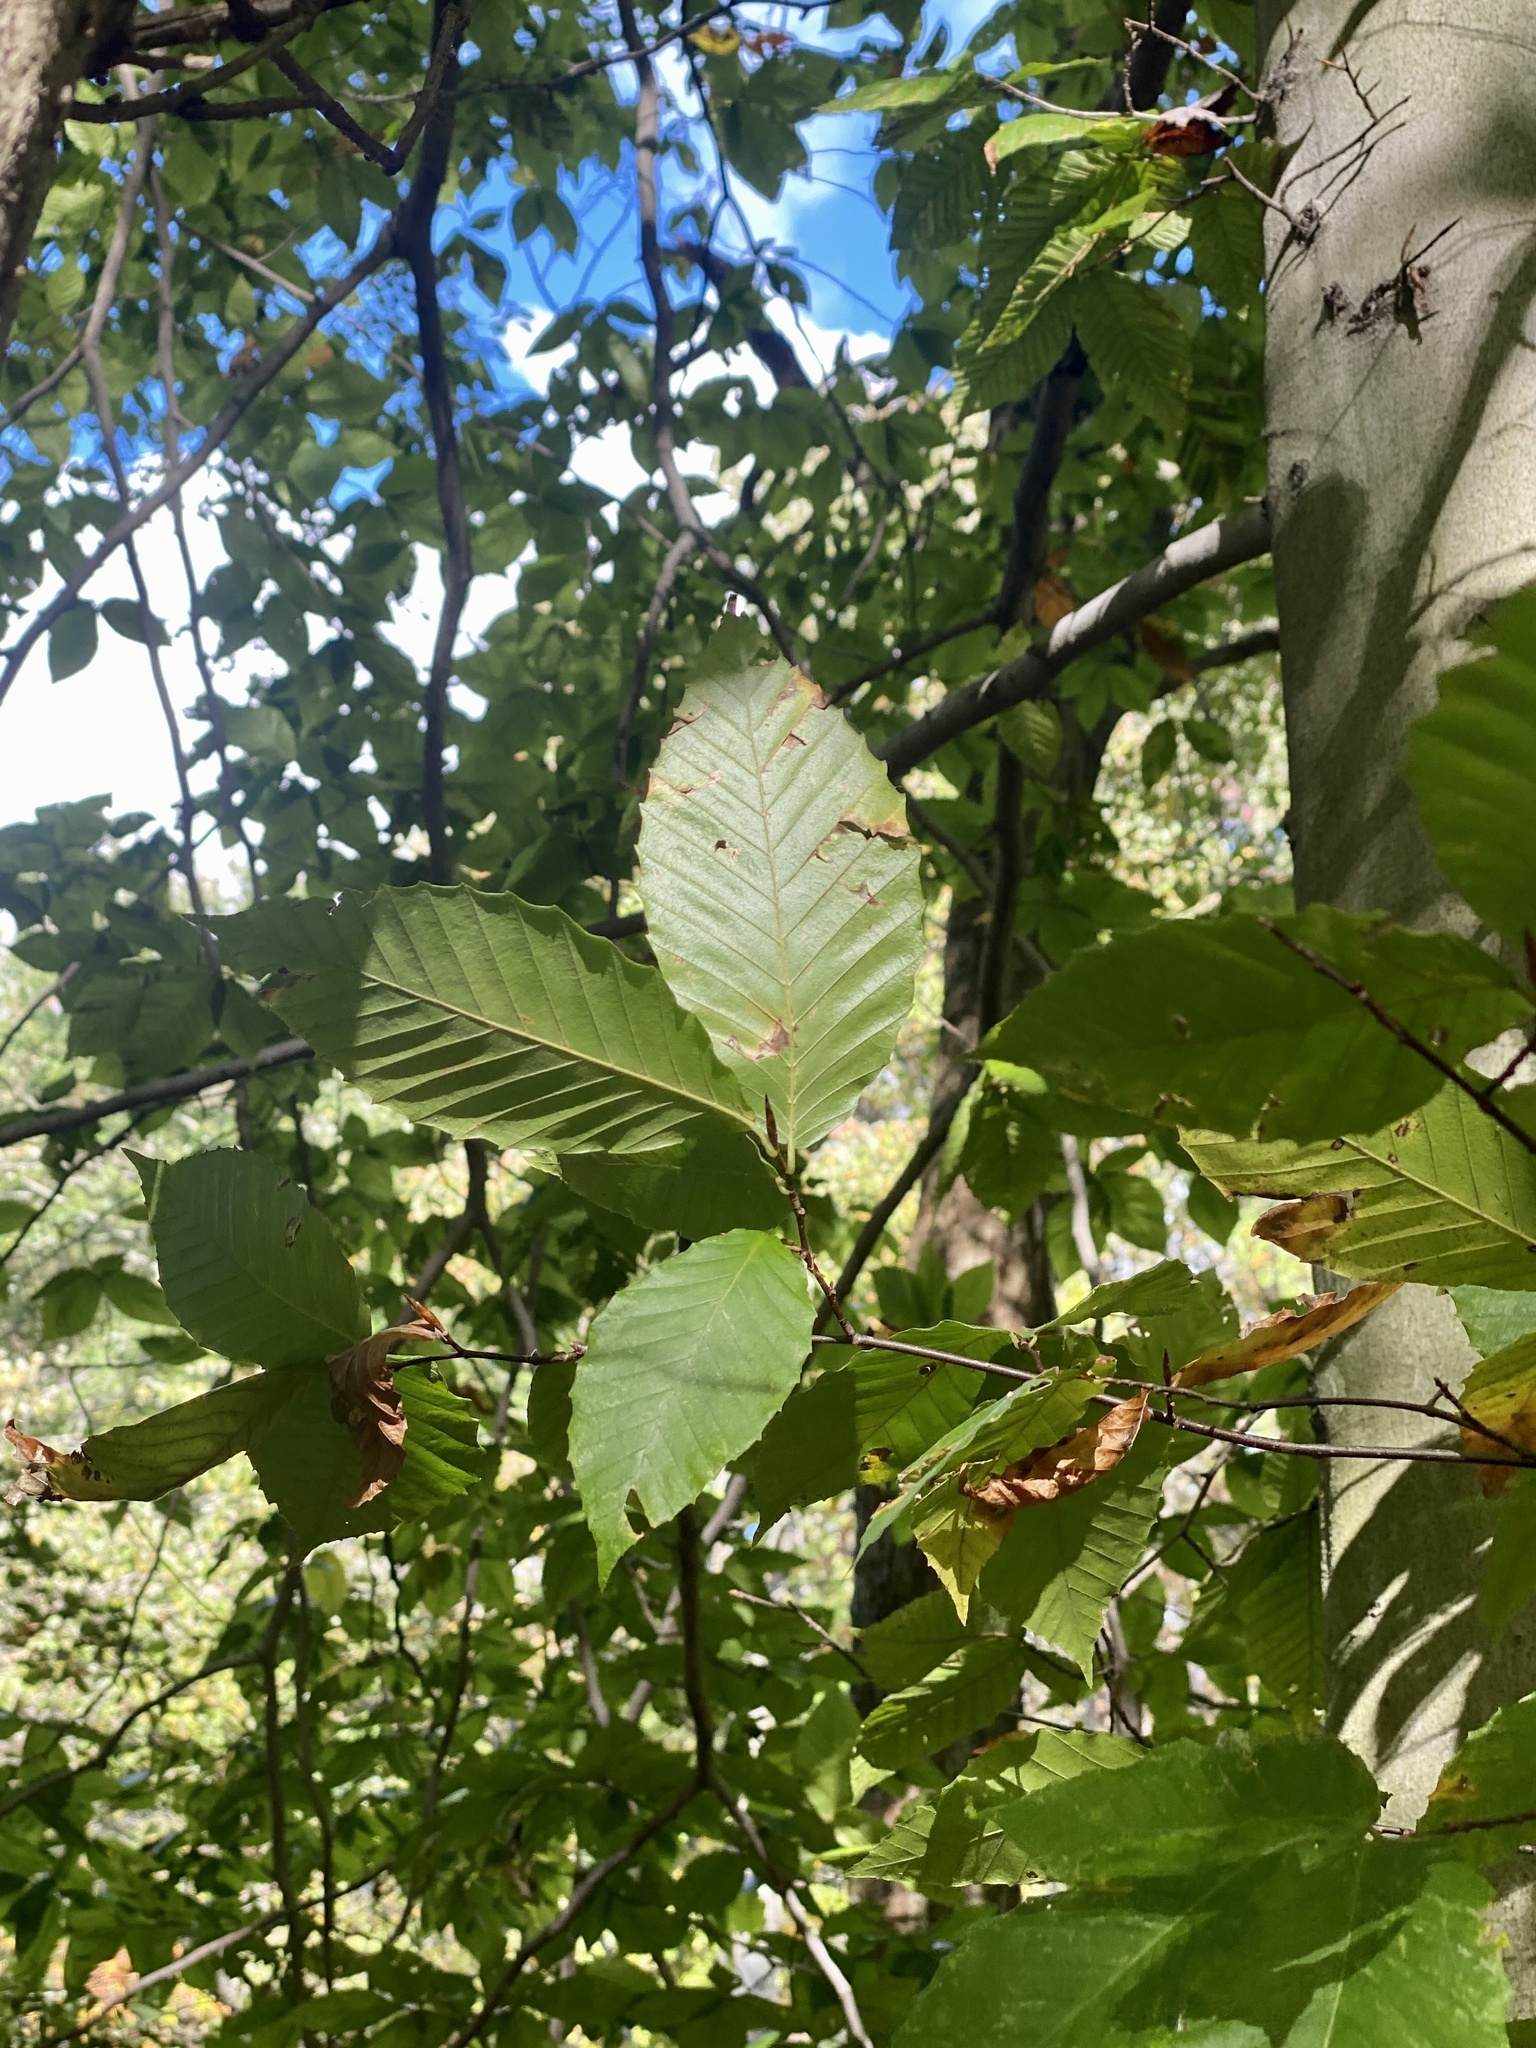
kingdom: Plantae
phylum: Tracheophyta
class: Magnoliopsida
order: Fagales
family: Fagaceae
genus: Fagus
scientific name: Fagus grandifolia
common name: American beech
